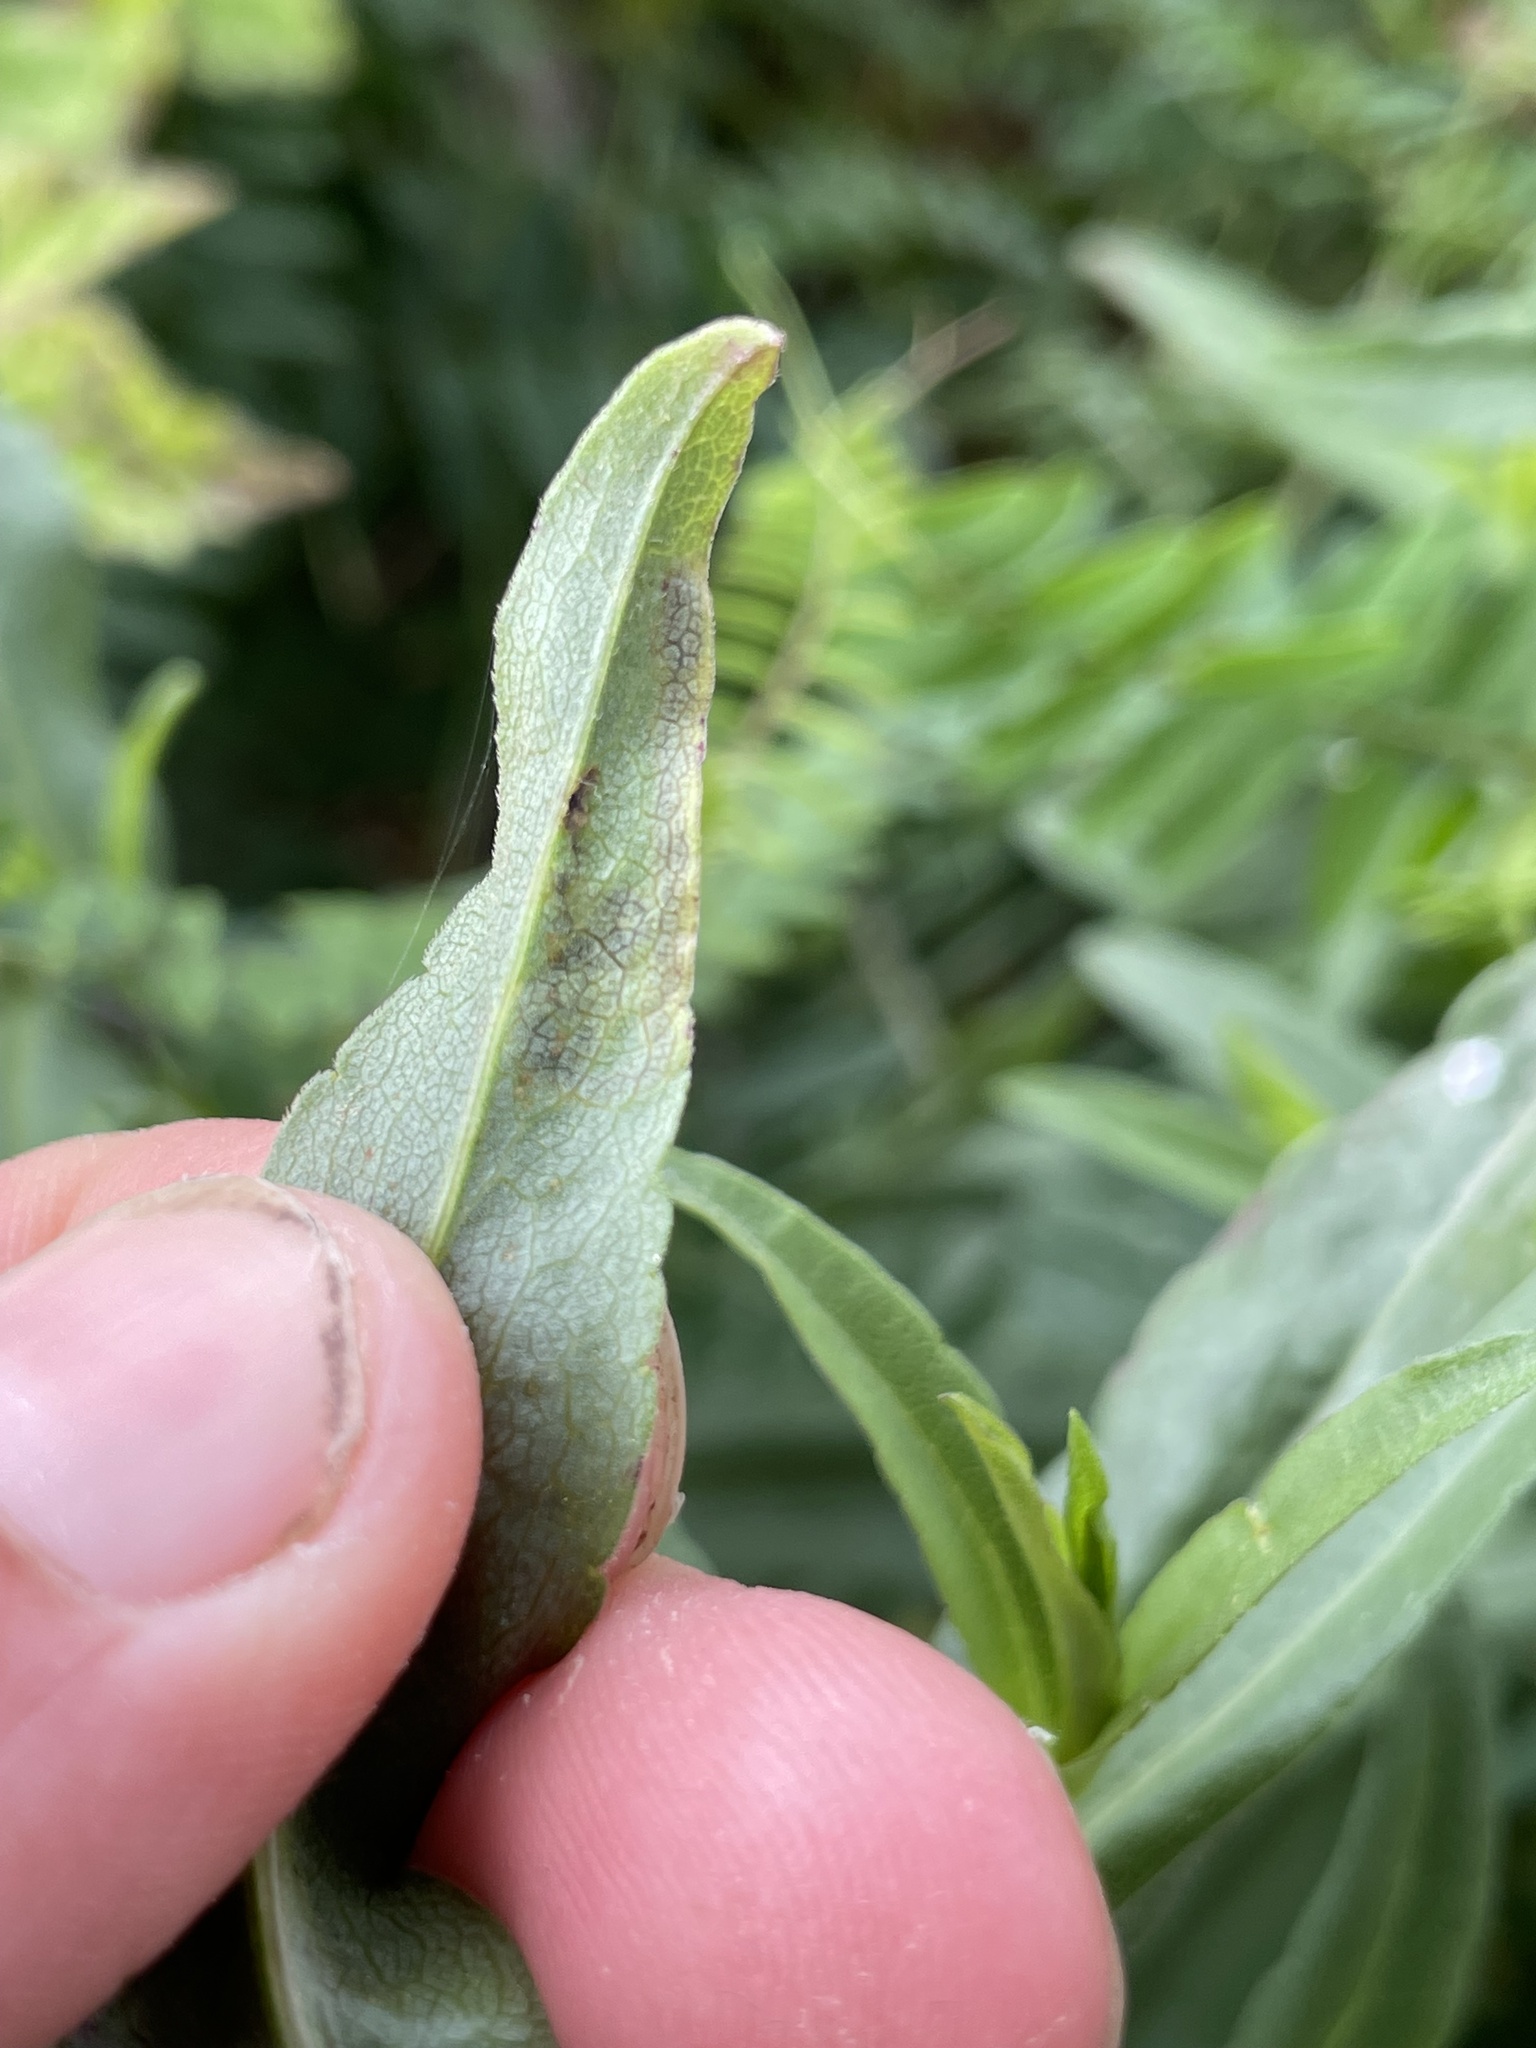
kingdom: Animalia
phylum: Arthropoda
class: Insecta
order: Diptera
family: Agromyzidae
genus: Liriomyza
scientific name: Liriomyza eupatorii
